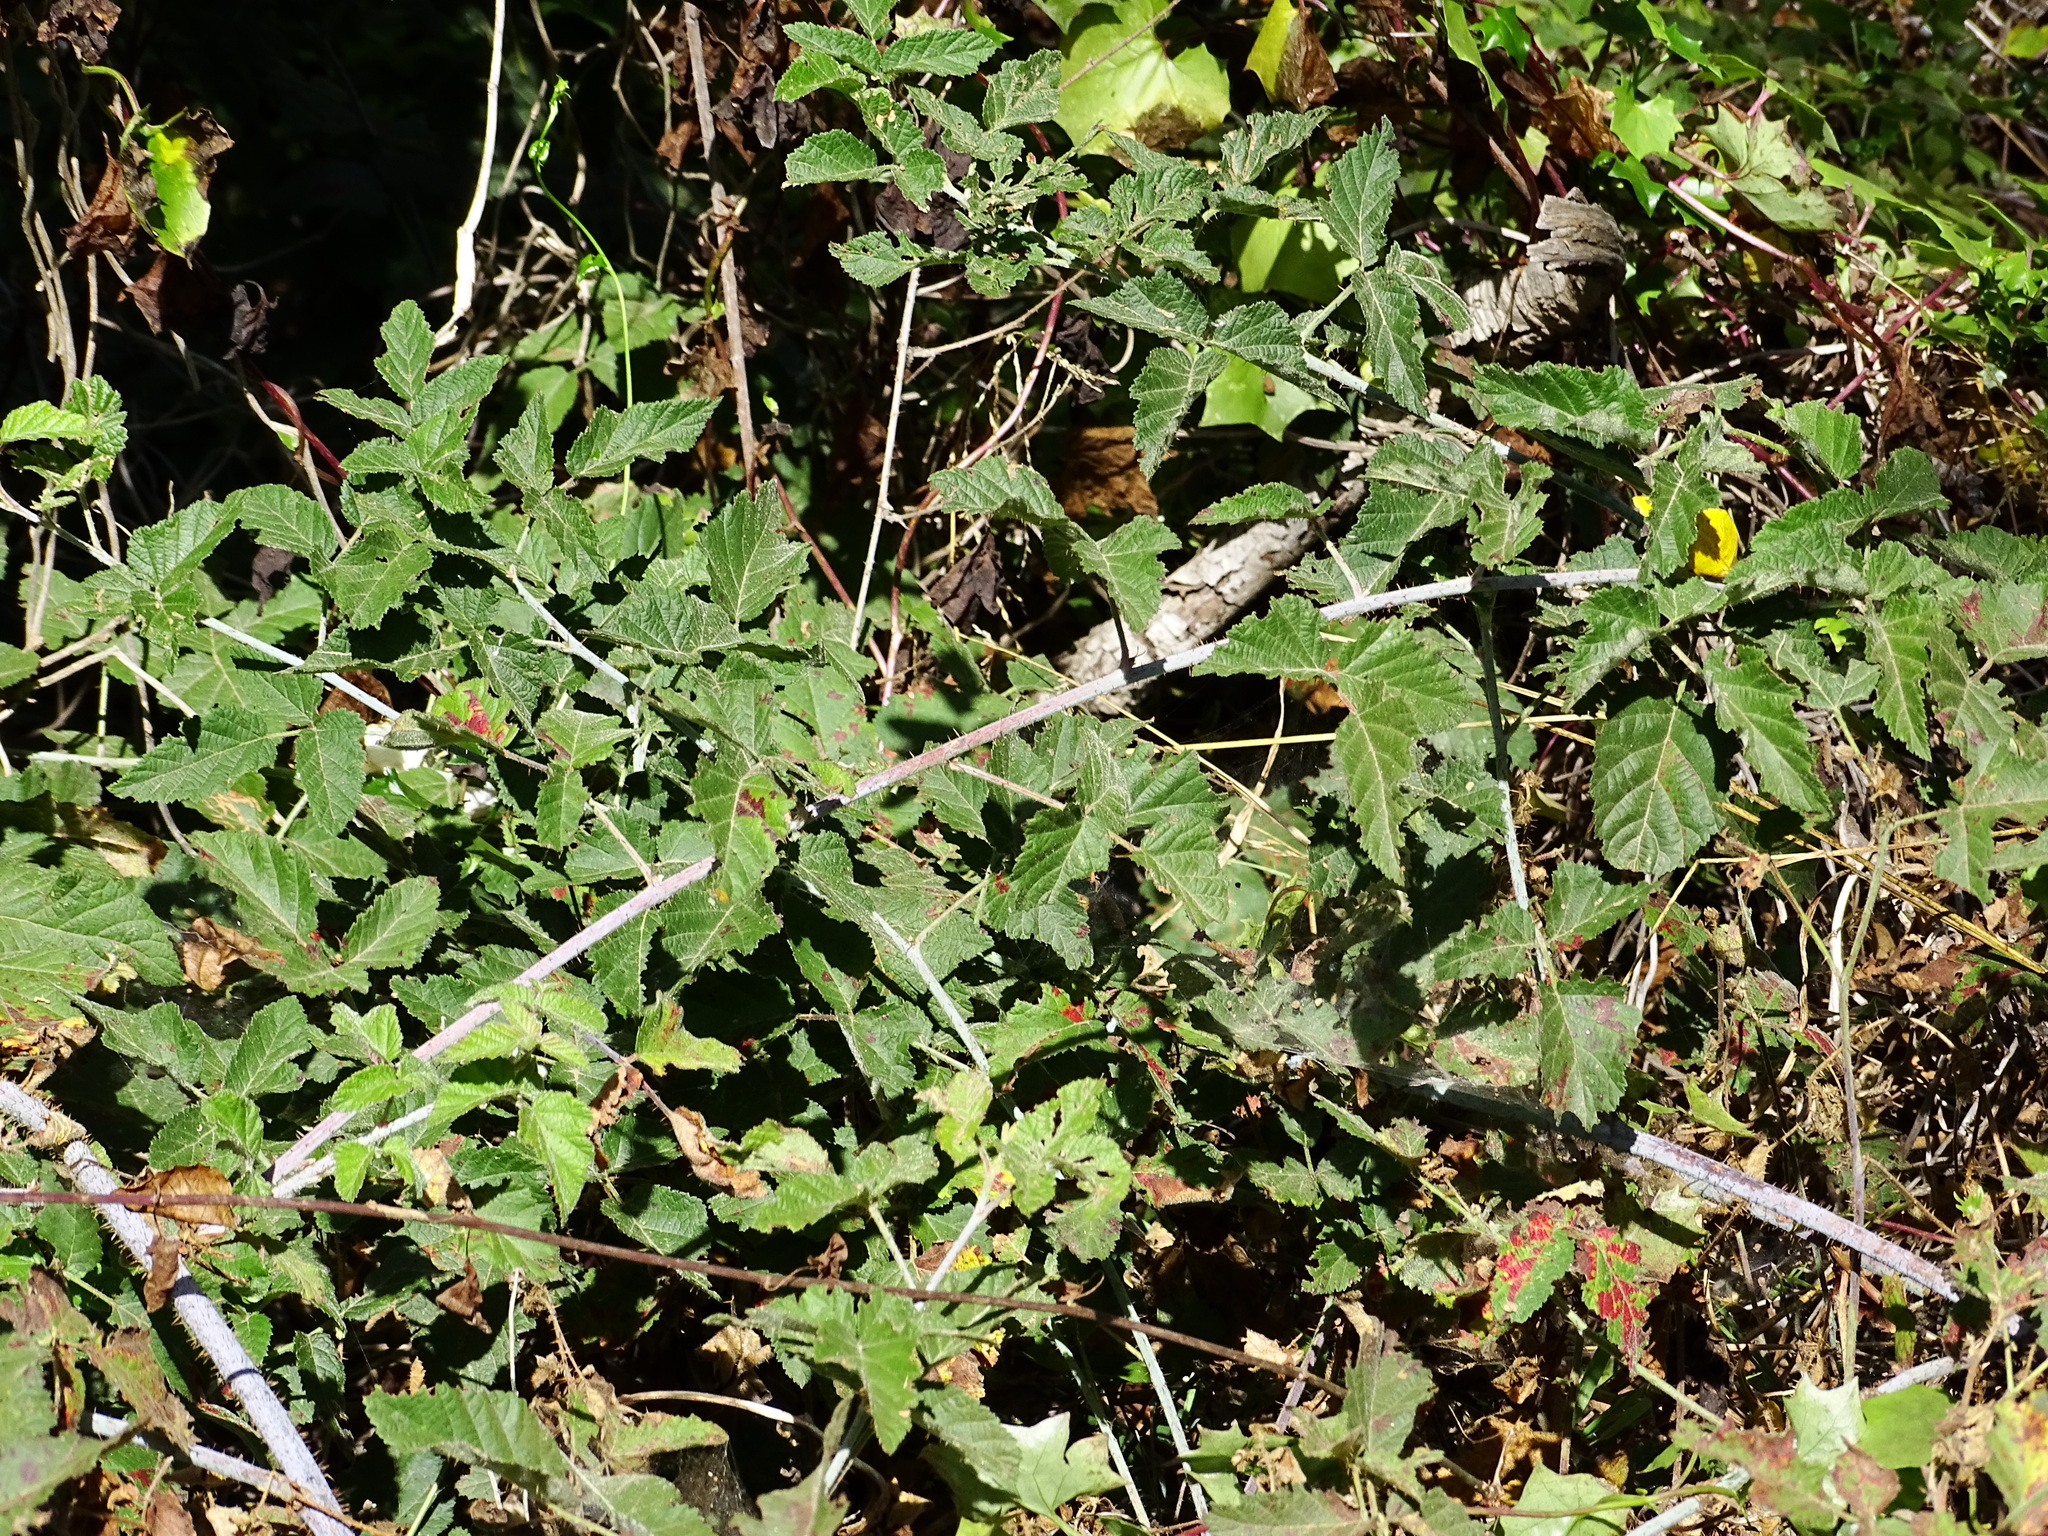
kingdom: Plantae
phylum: Tracheophyta
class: Magnoliopsida
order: Rosales
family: Rosaceae
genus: Rubus
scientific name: Rubus ursinus
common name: Pacific blackberry
